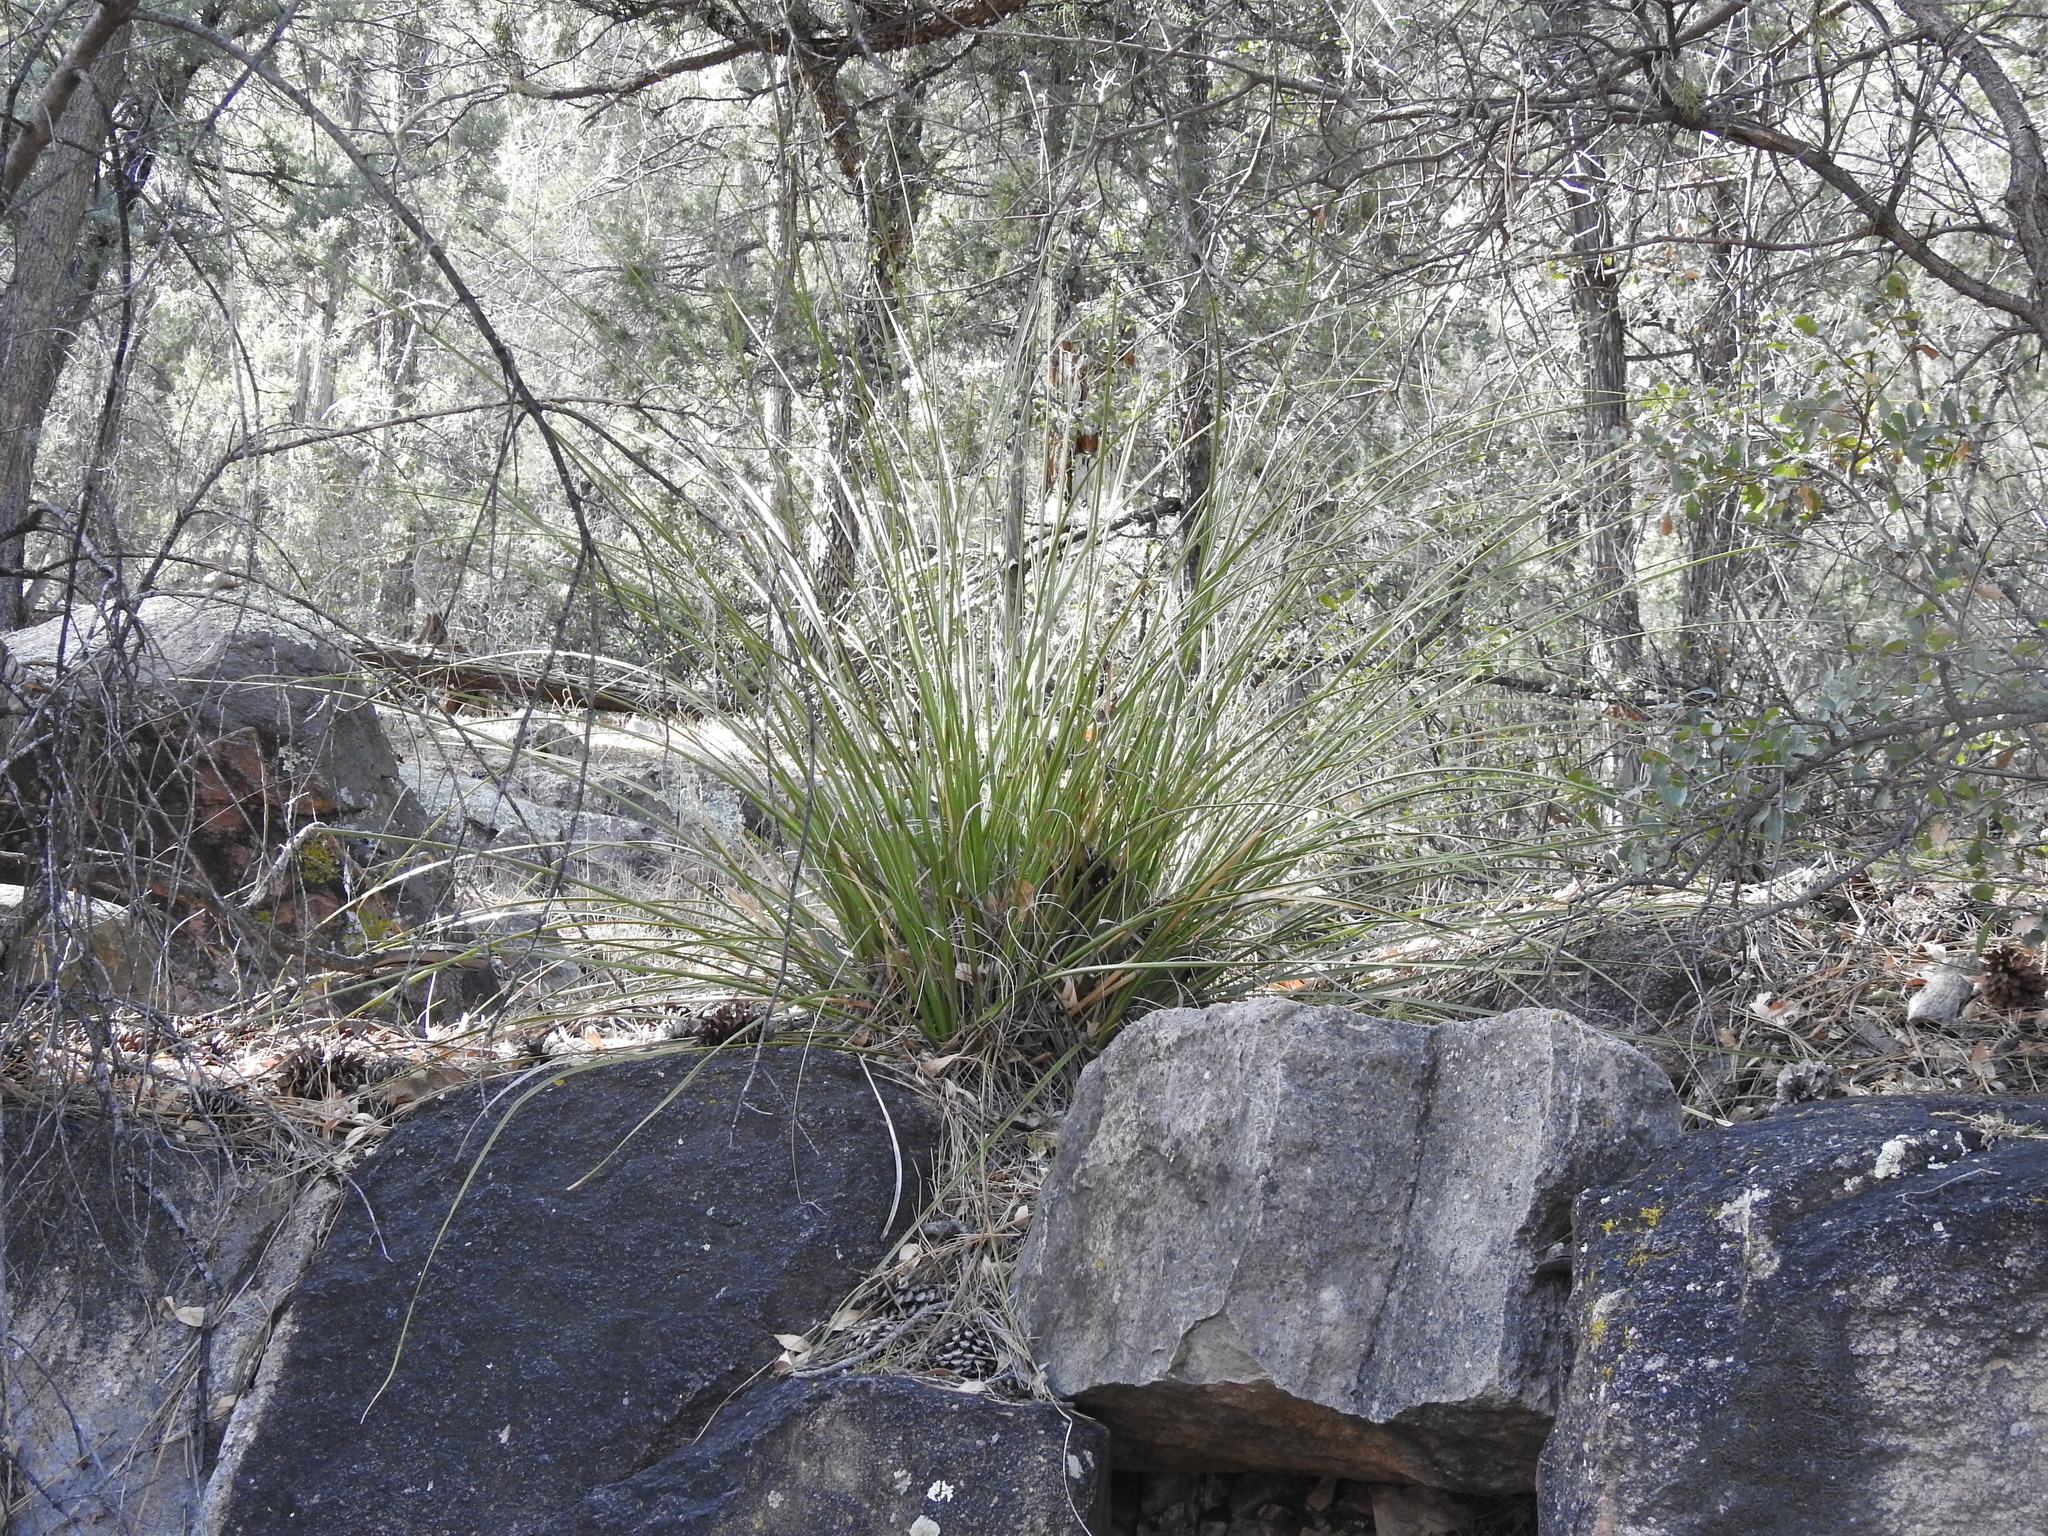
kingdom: Plantae
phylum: Tracheophyta
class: Liliopsida
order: Asparagales
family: Asparagaceae
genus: Nolina
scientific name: Nolina microcarpa
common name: Bear-grass
